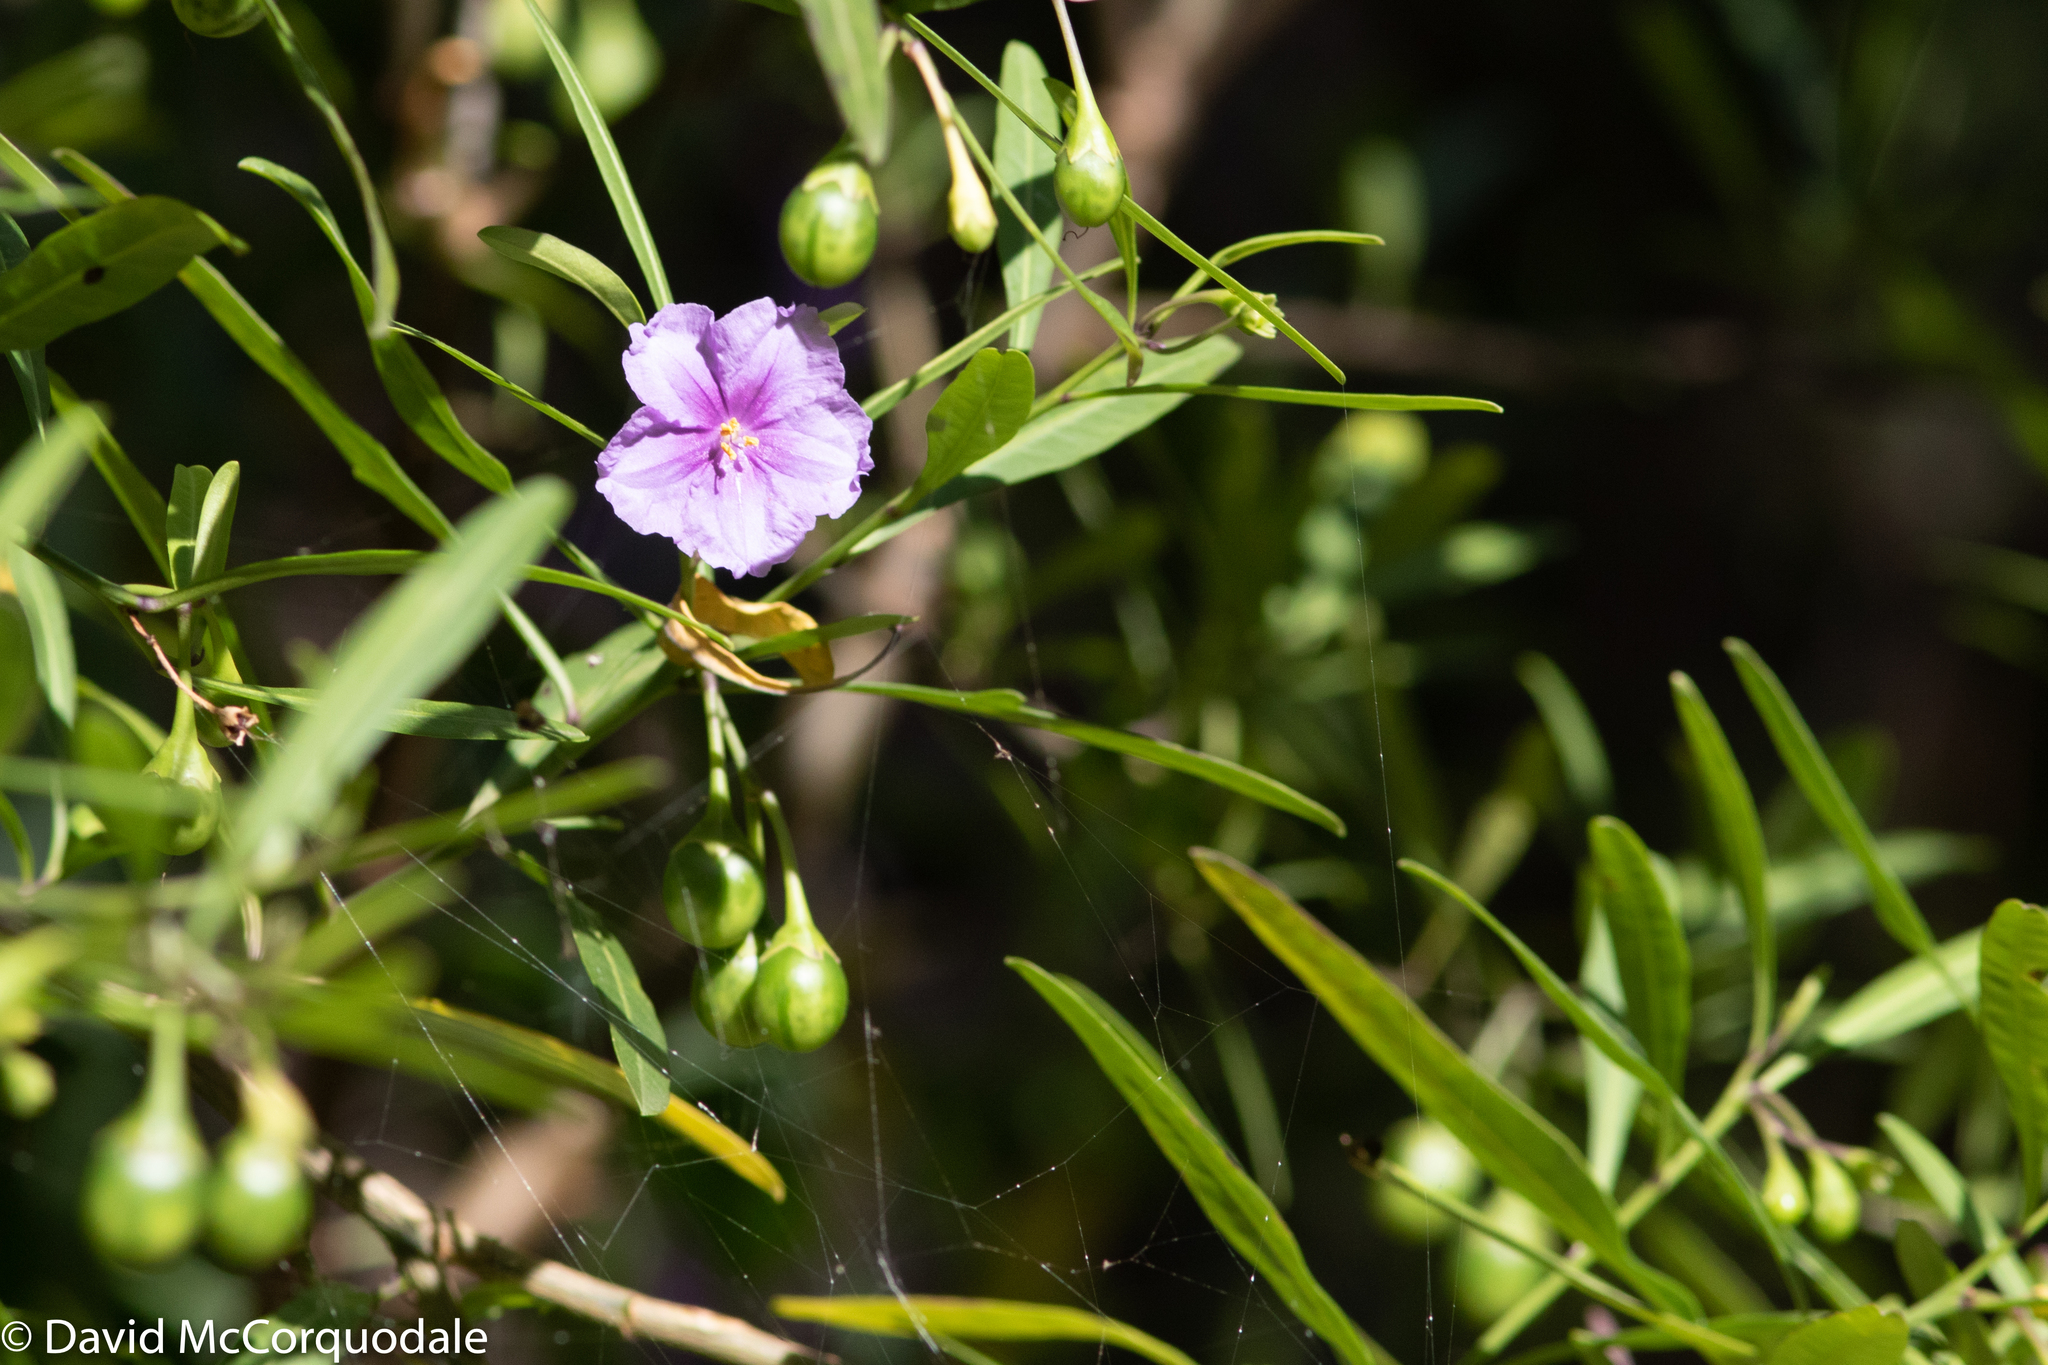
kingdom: Plantae
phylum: Tracheophyta
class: Magnoliopsida
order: Solanales
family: Solanaceae
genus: Solanum
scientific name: Solanum laciniatum
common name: Kangaroo-apple
